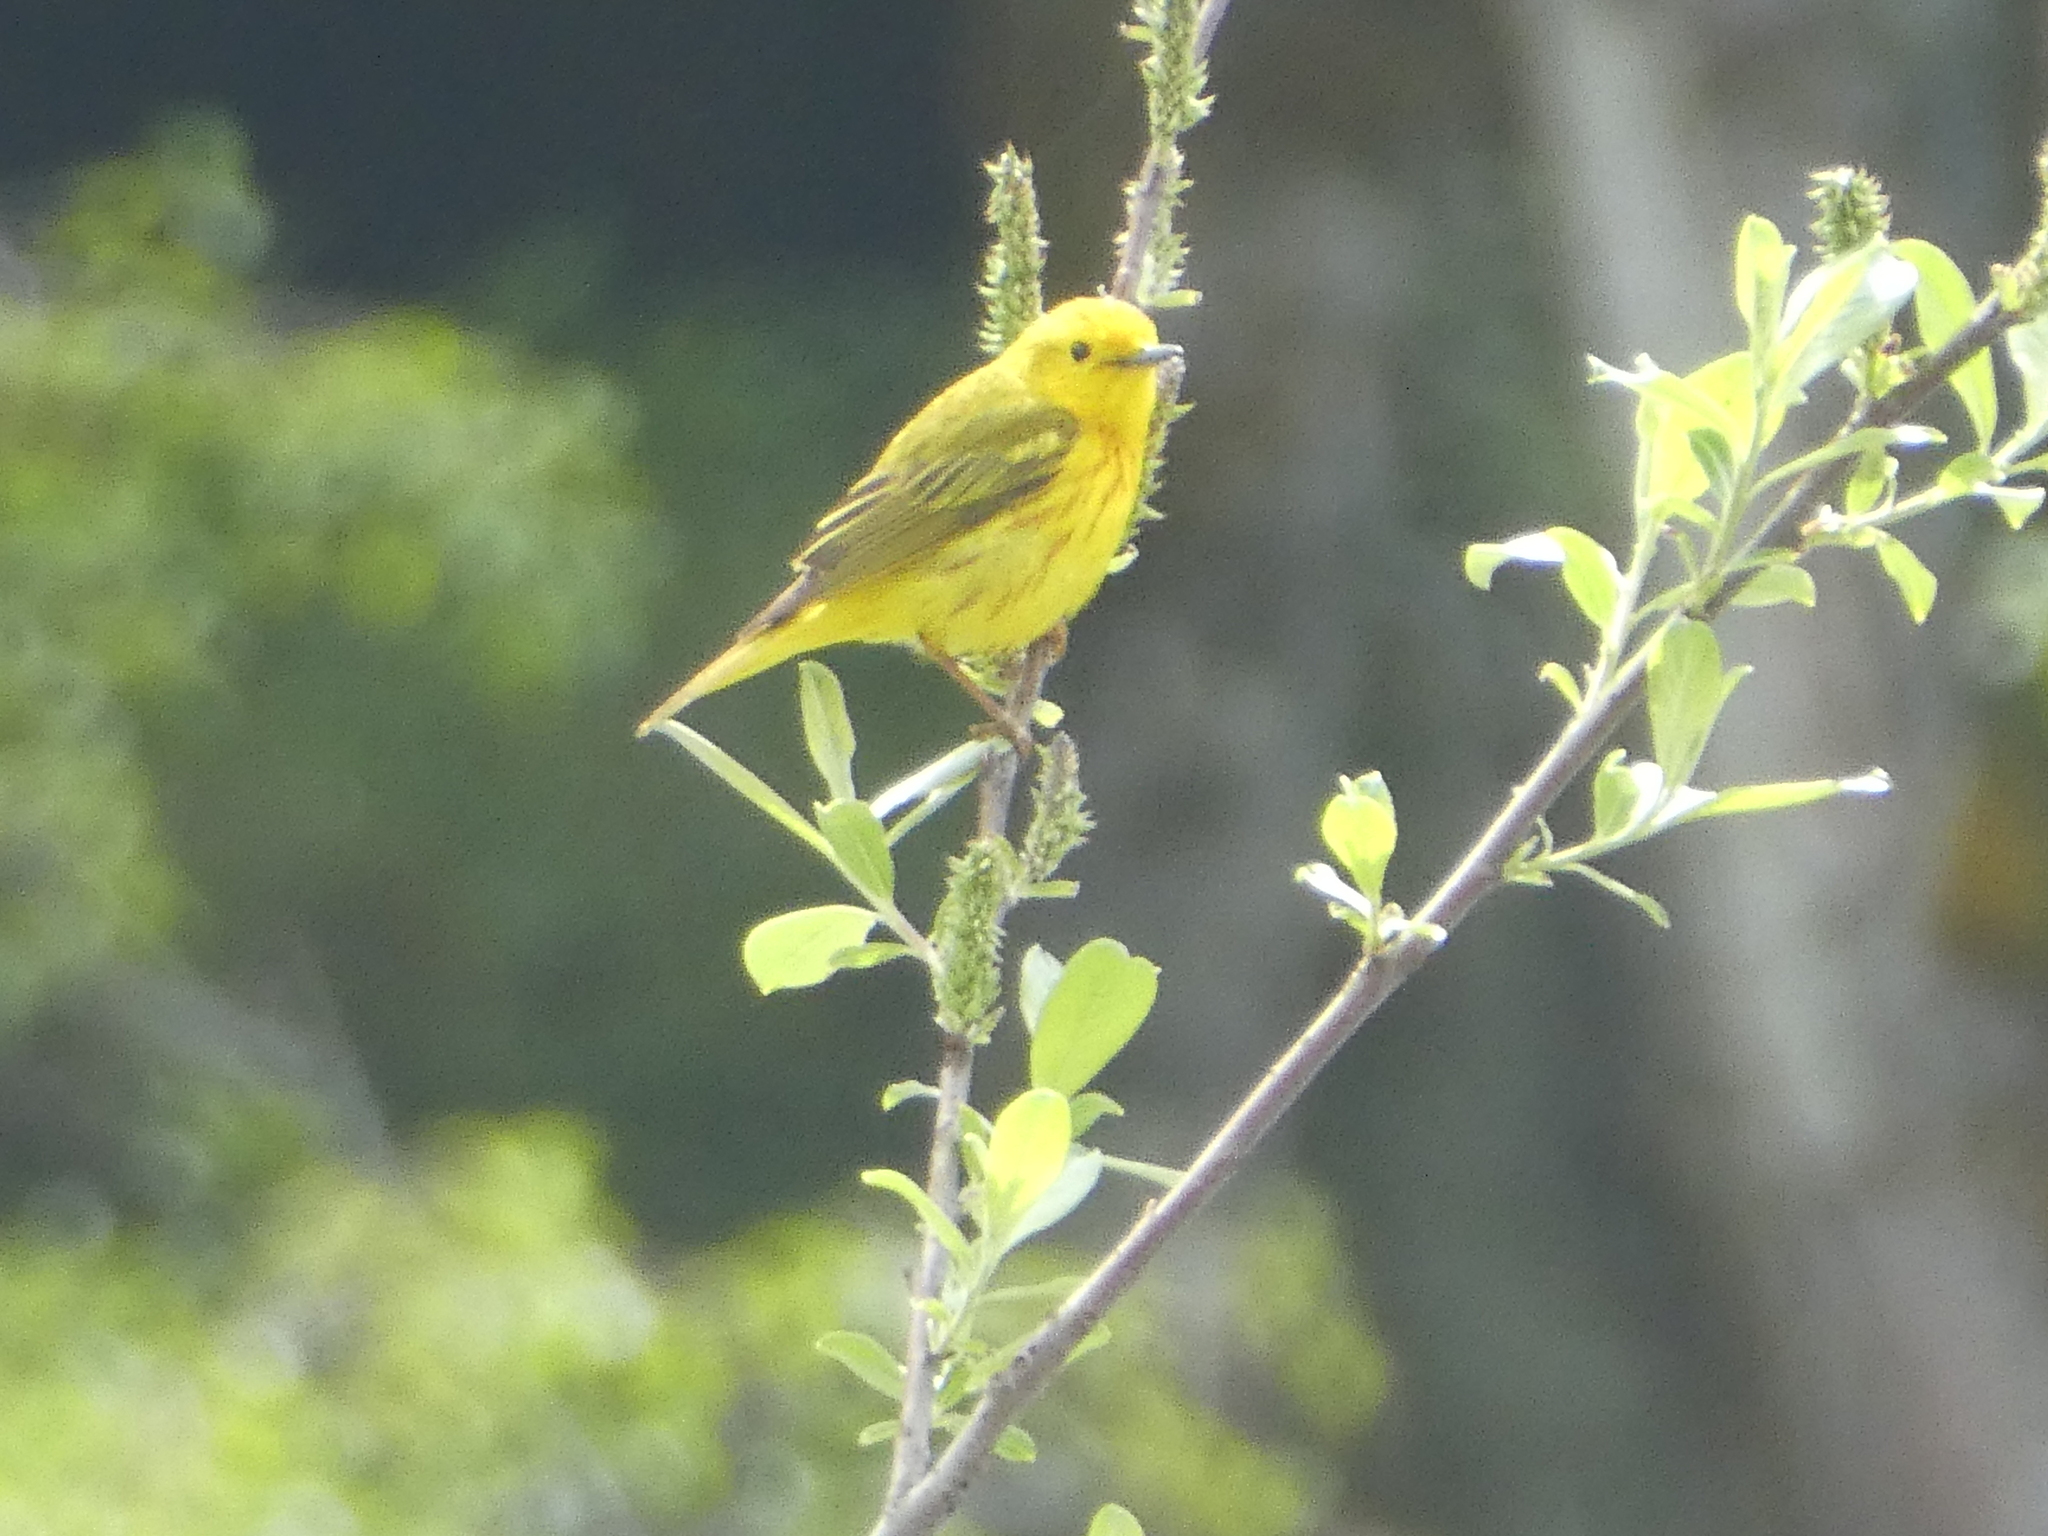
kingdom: Animalia
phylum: Chordata
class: Aves
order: Passeriformes
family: Parulidae
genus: Setophaga
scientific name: Setophaga petechia
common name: Yellow warbler
